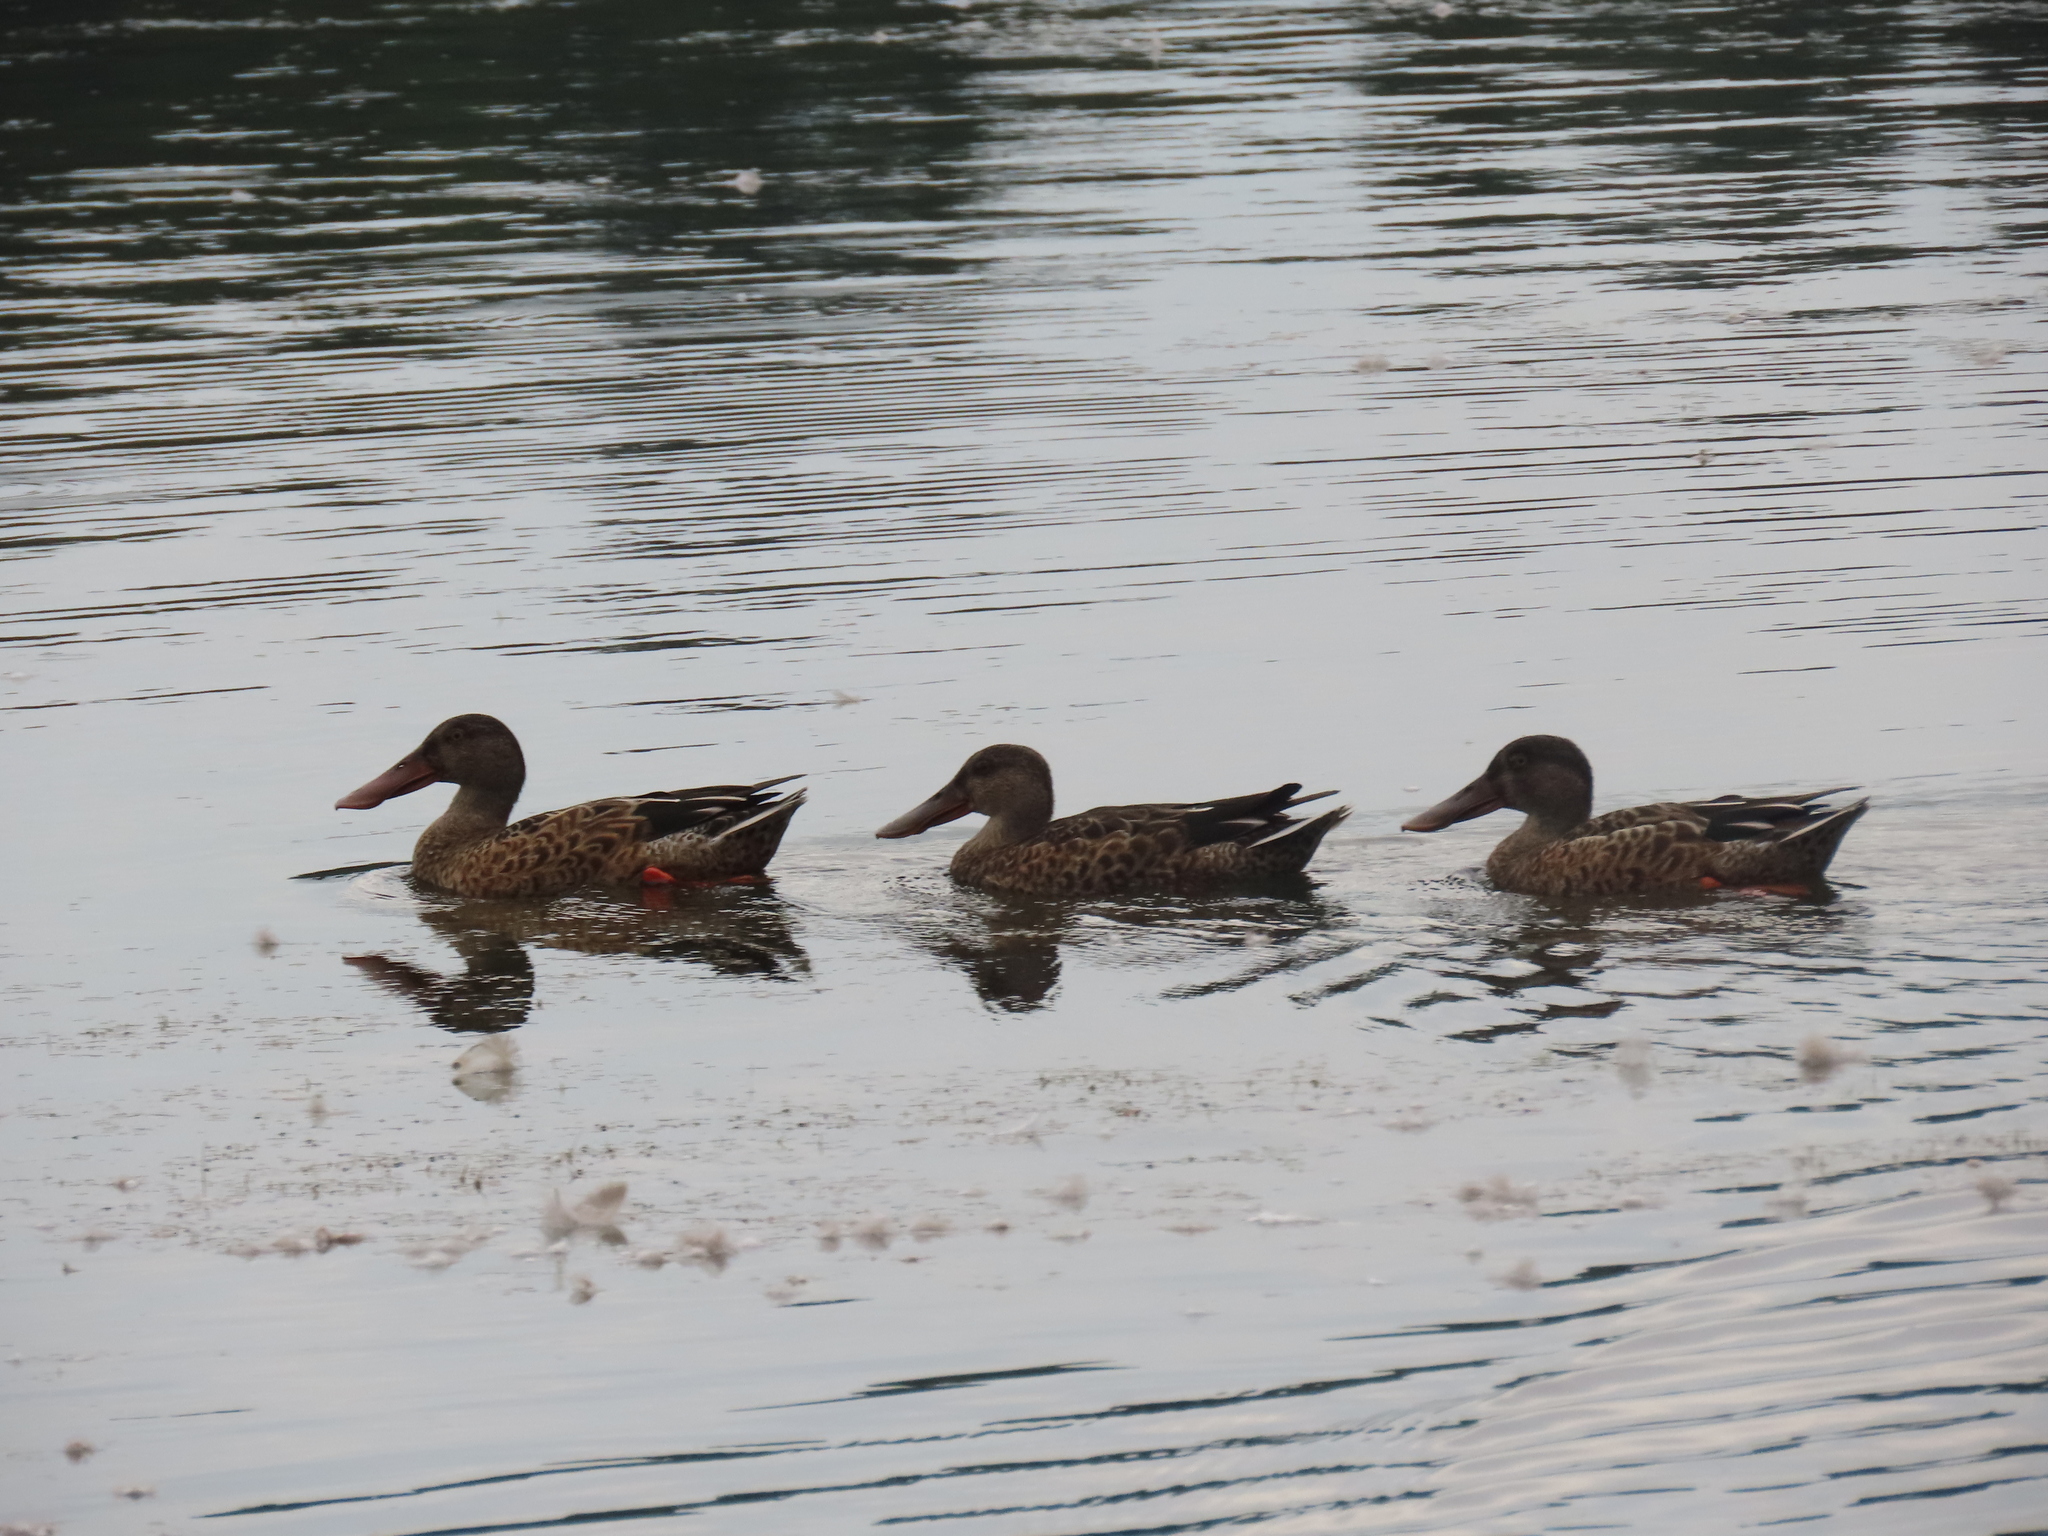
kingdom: Animalia
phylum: Chordata
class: Aves
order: Anseriformes
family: Anatidae
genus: Spatula
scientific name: Spatula clypeata
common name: Northern shoveler
